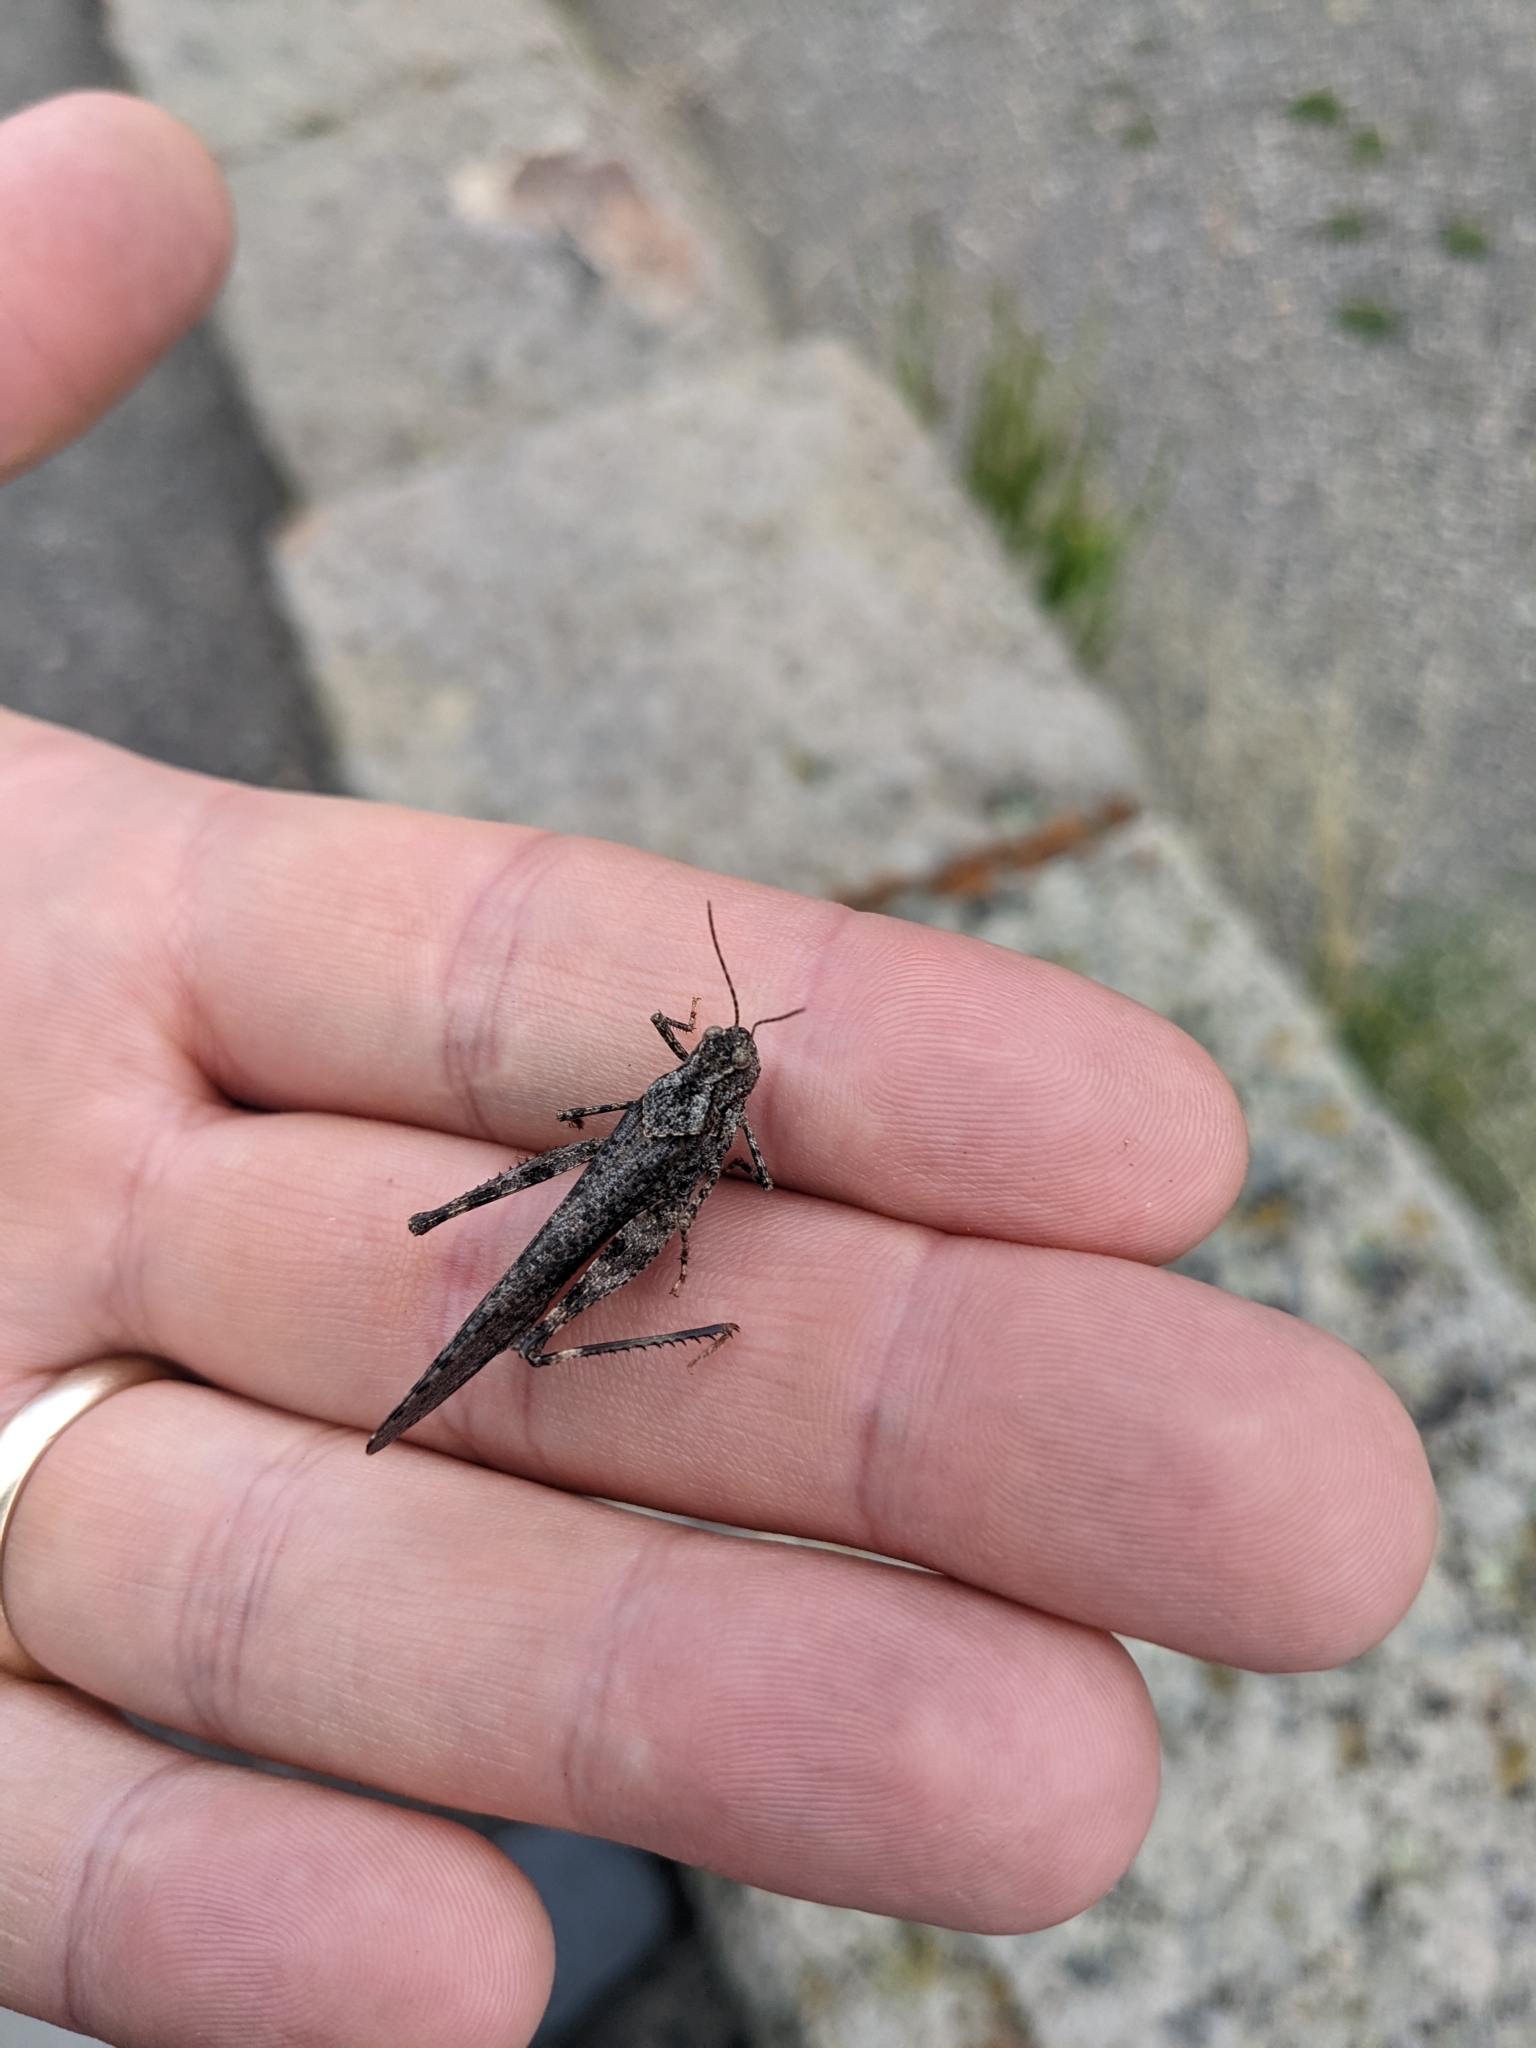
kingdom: Animalia
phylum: Arthropoda
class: Insecta
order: Orthoptera
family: Acrididae
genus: Trimerotropis
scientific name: Trimerotropis verruculata
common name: Crackling forest grasshopper
